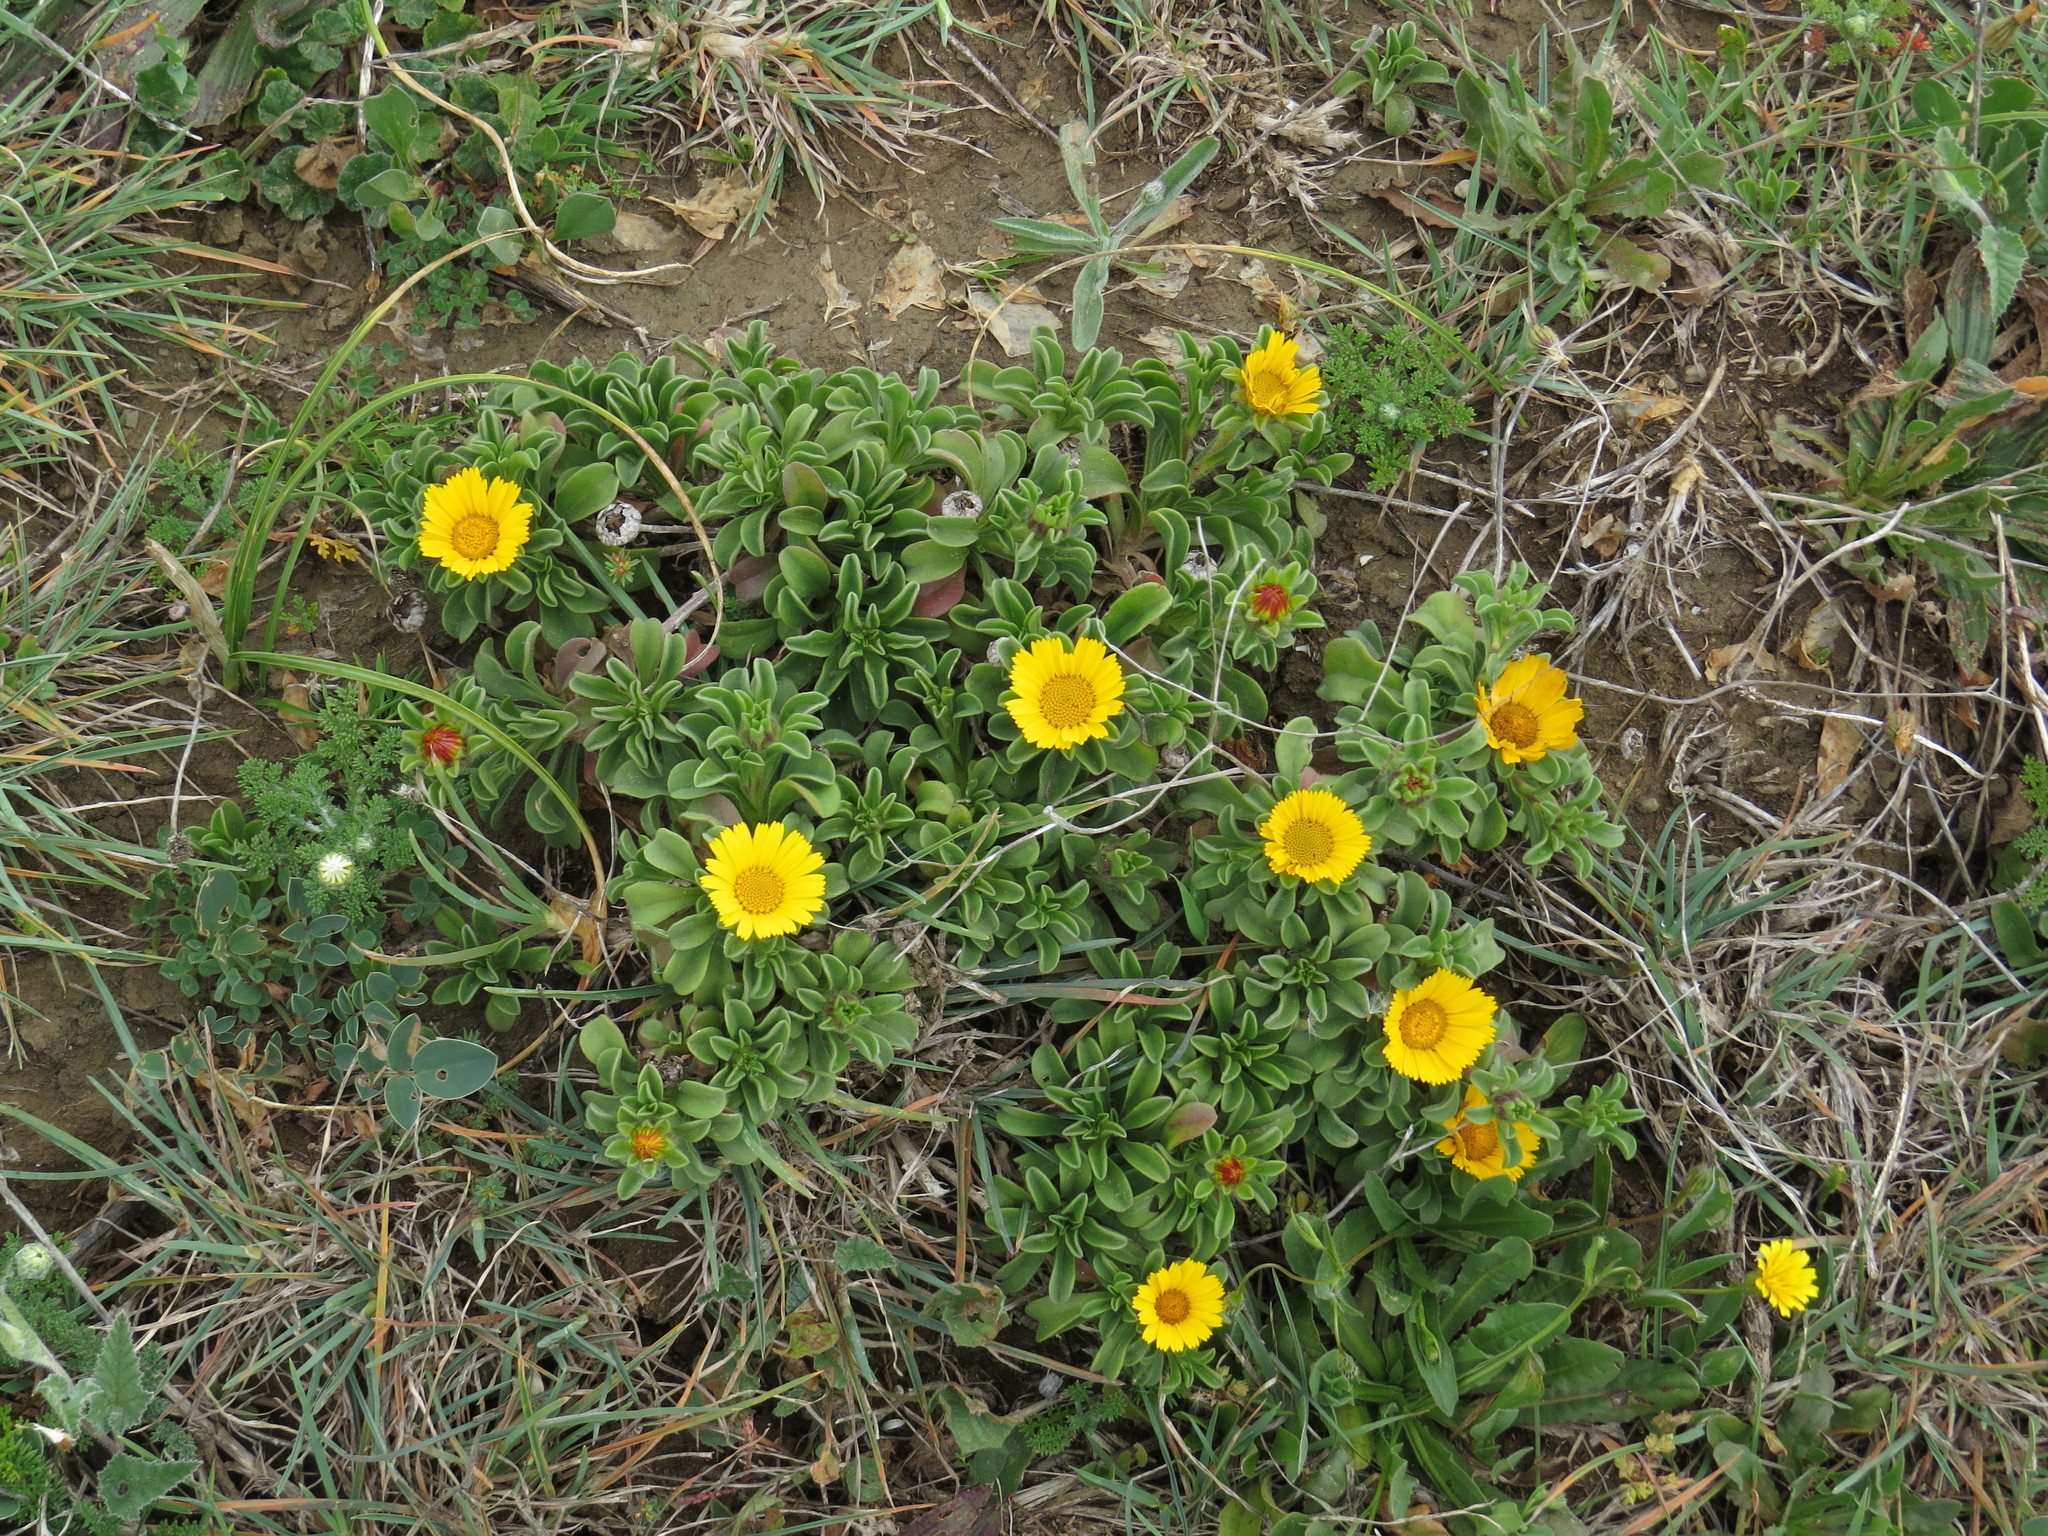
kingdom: Plantae
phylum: Tracheophyta
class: Magnoliopsida
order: Asterales
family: Asteraceae
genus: Pallenis
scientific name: Pallenis maritima
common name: Golden coin daisy
